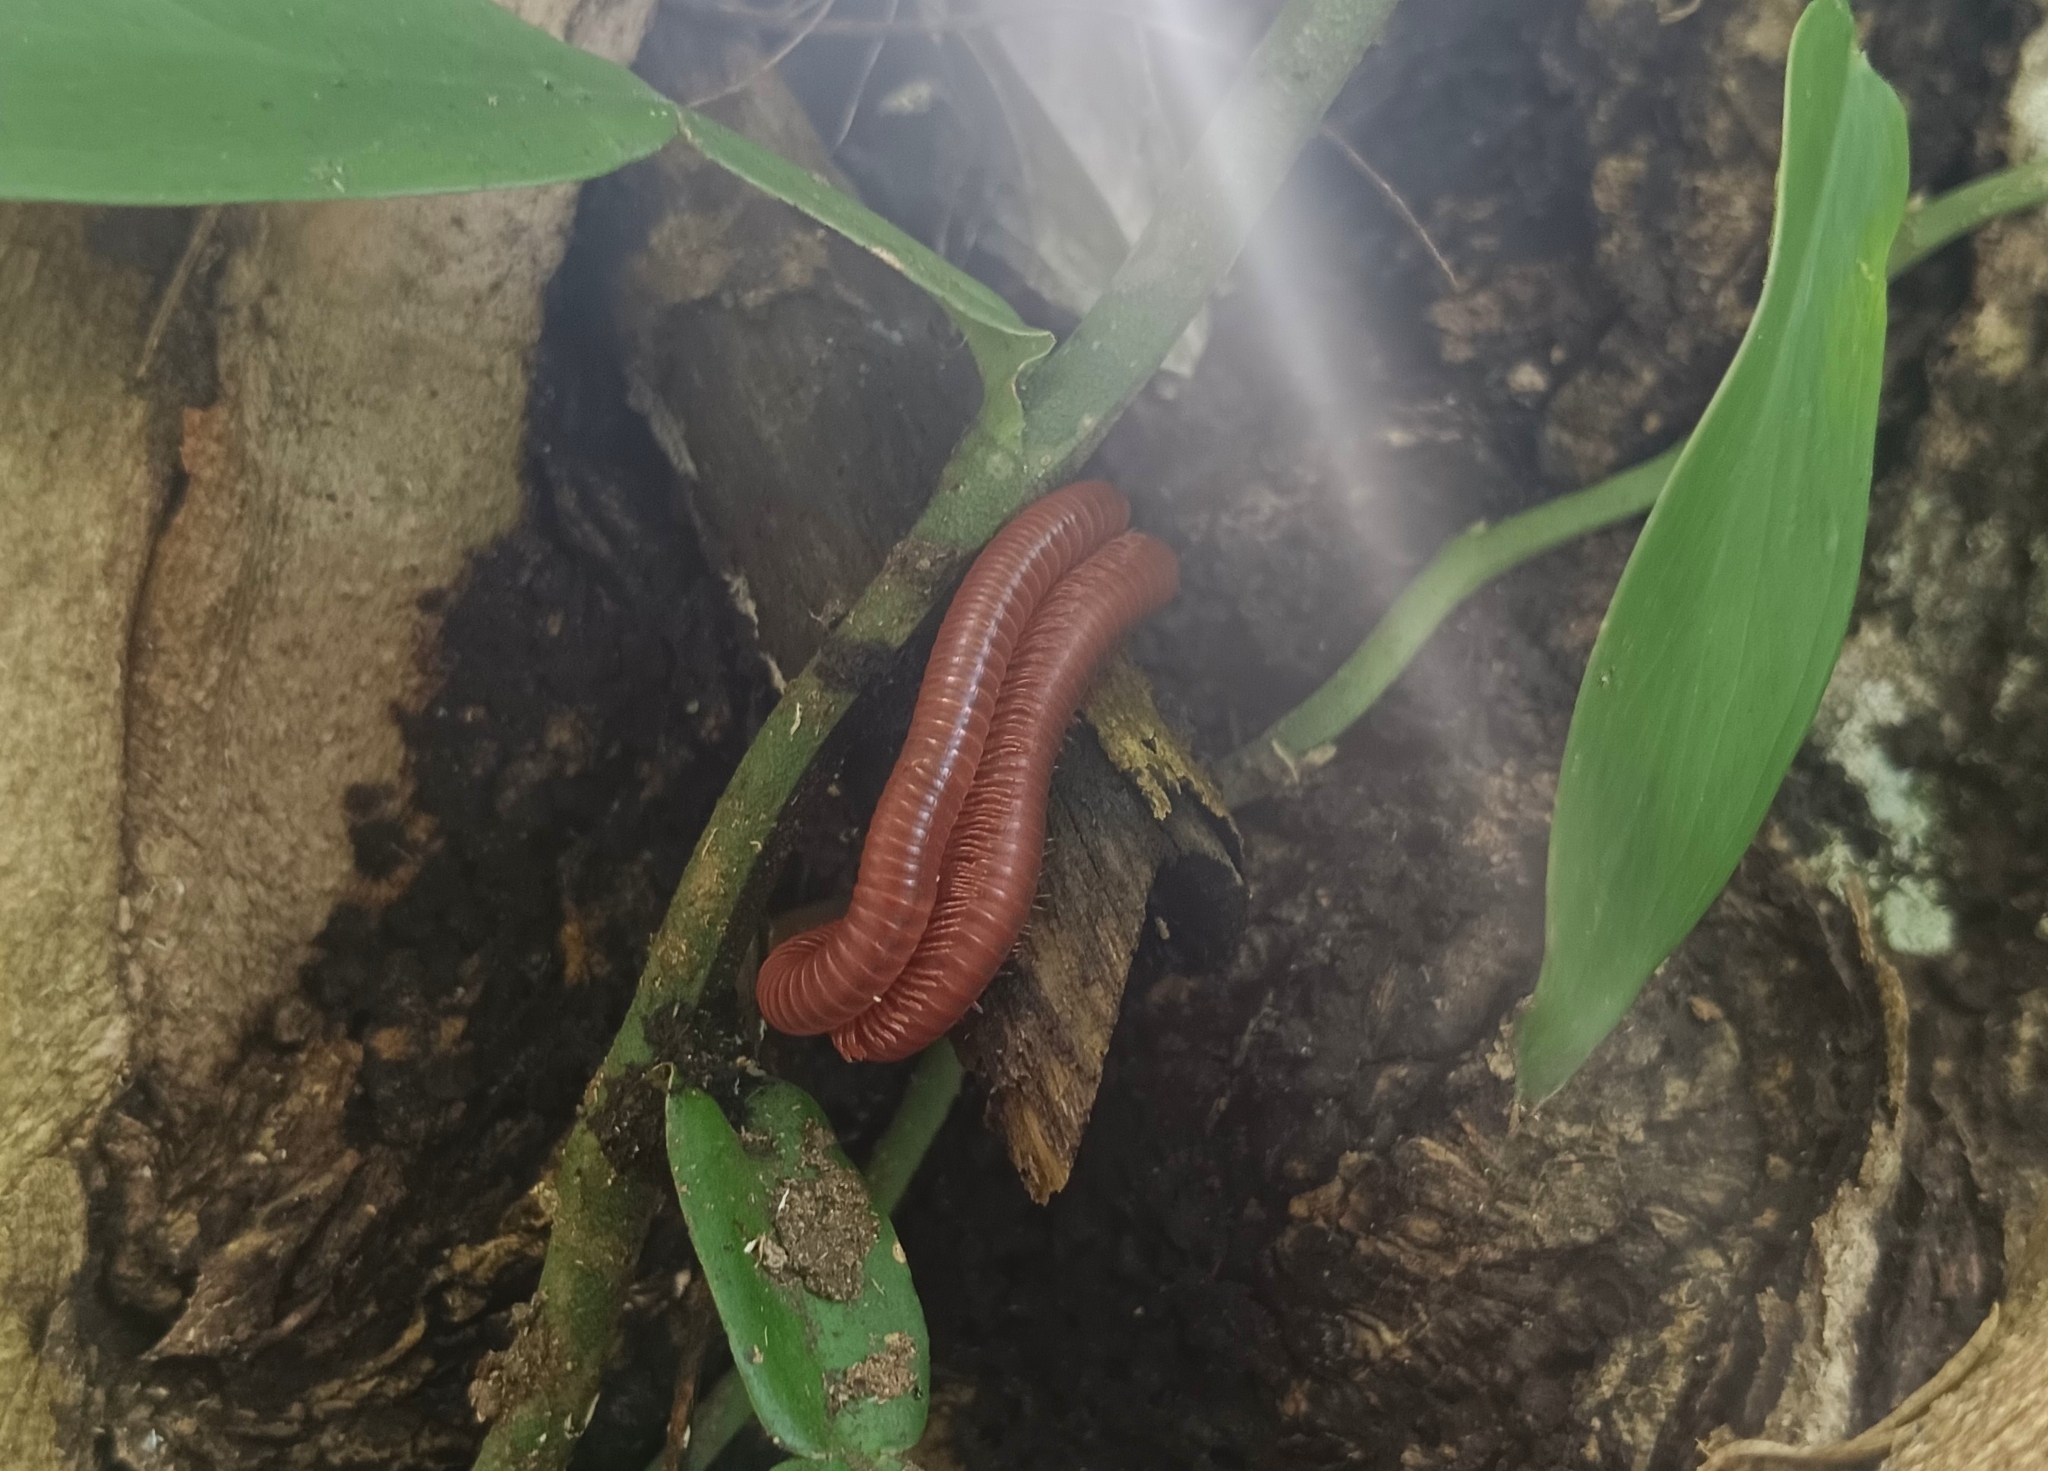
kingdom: Animalia
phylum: Arthropoda
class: Diplopoda
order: Spirobolida
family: Pachybolidae
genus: Trigoniulus
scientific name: Trigoniulus corallinus
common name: Millipede
